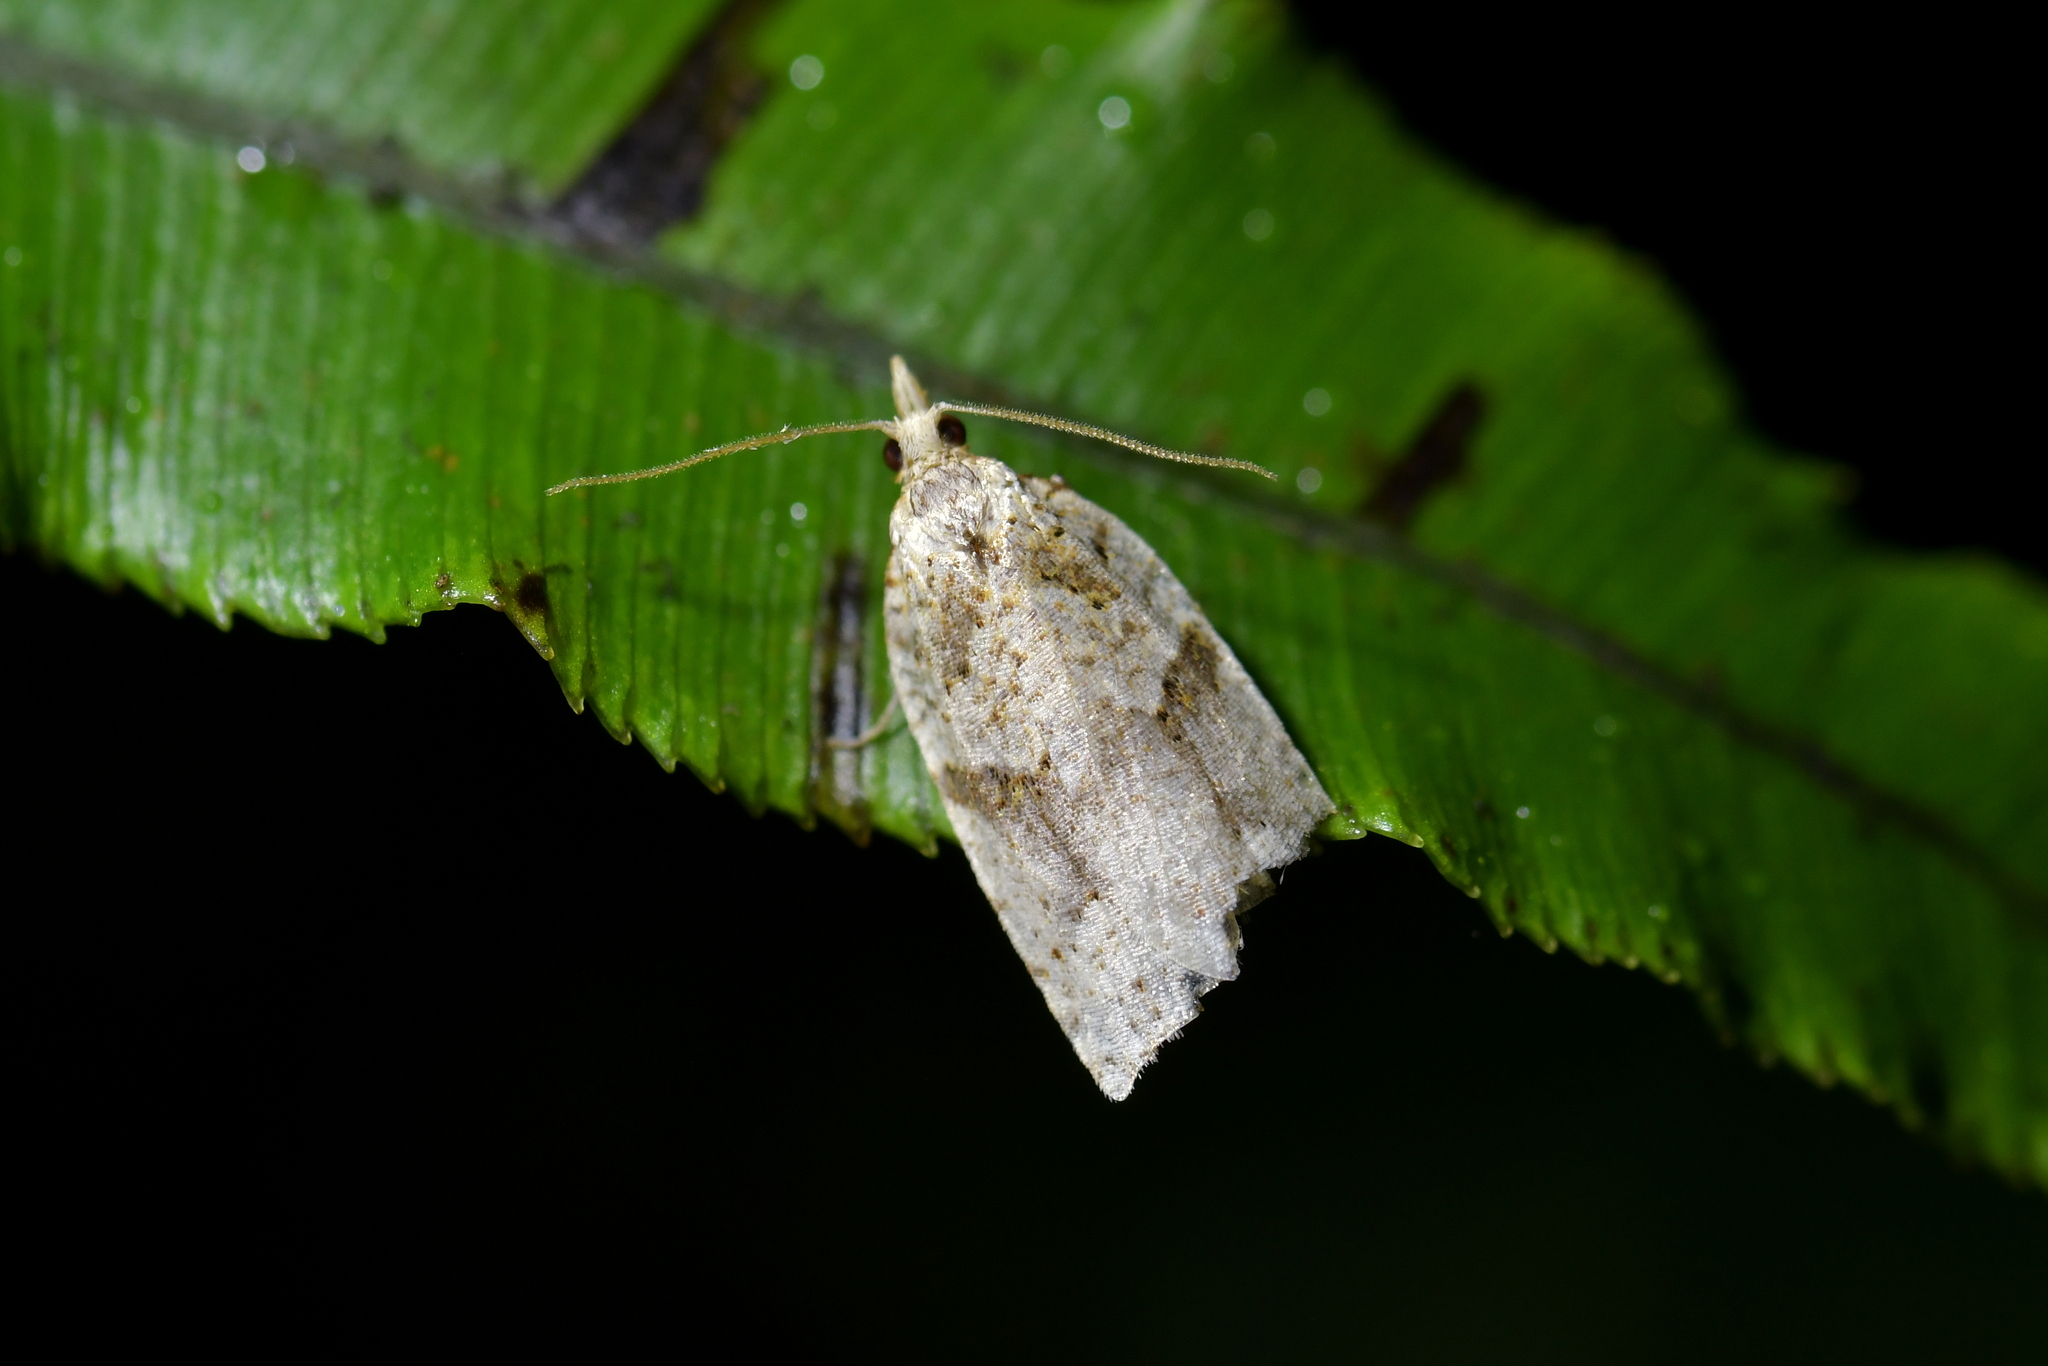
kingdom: Animalia
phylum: Arthropoda
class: Insecta
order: Lepidoptera
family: Tortricidae
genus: Leucotenes
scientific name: Leucotenes coprosmae
